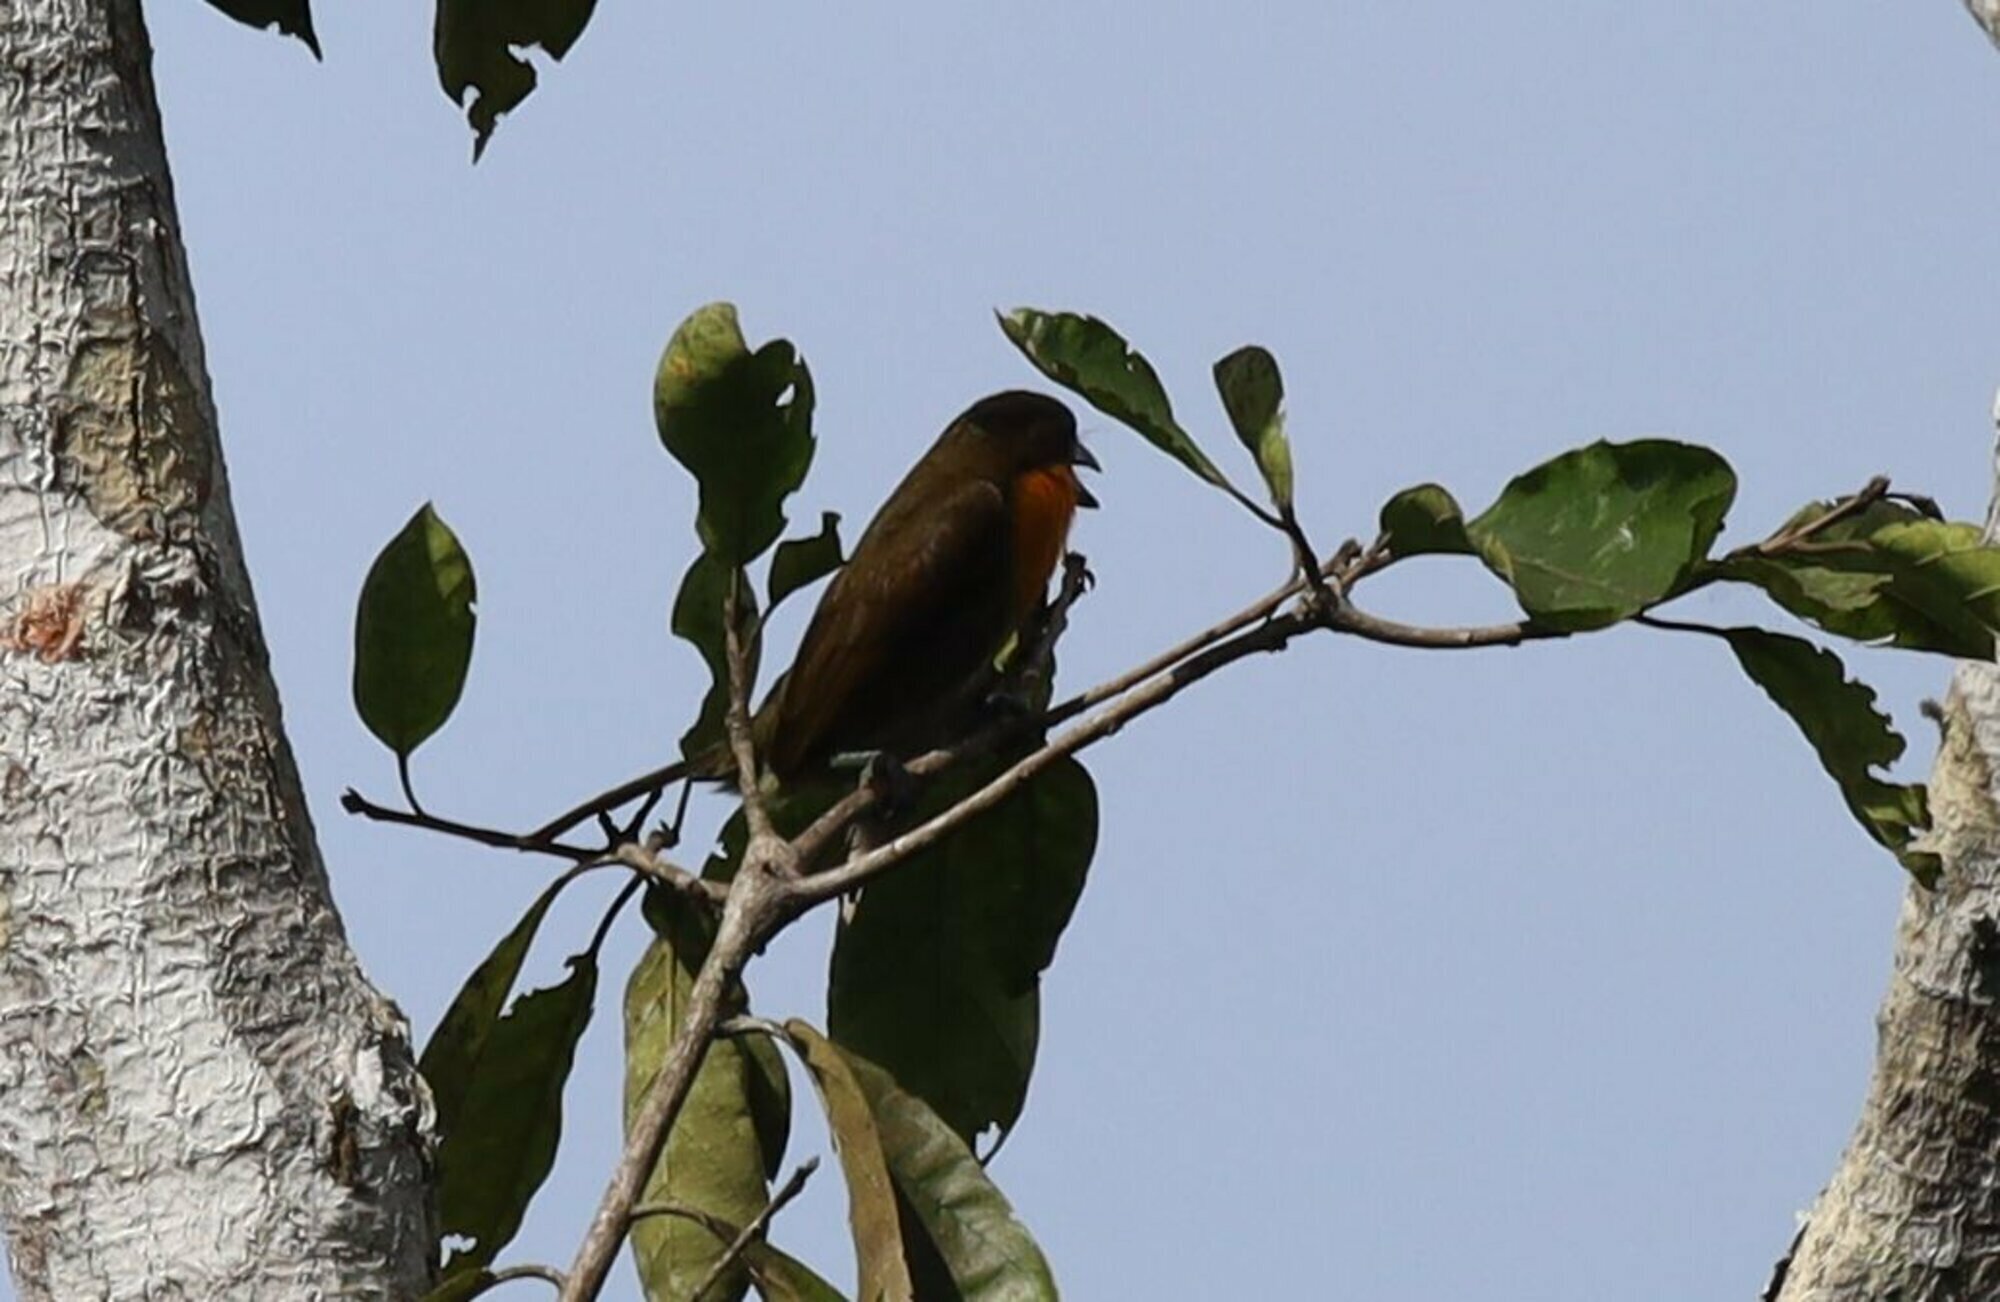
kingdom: Animalia
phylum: Chordata
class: Aves
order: Piciformes
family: Capitonidae
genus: Capito
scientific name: Capito aurovirens
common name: Scarlet-crowned barbet
